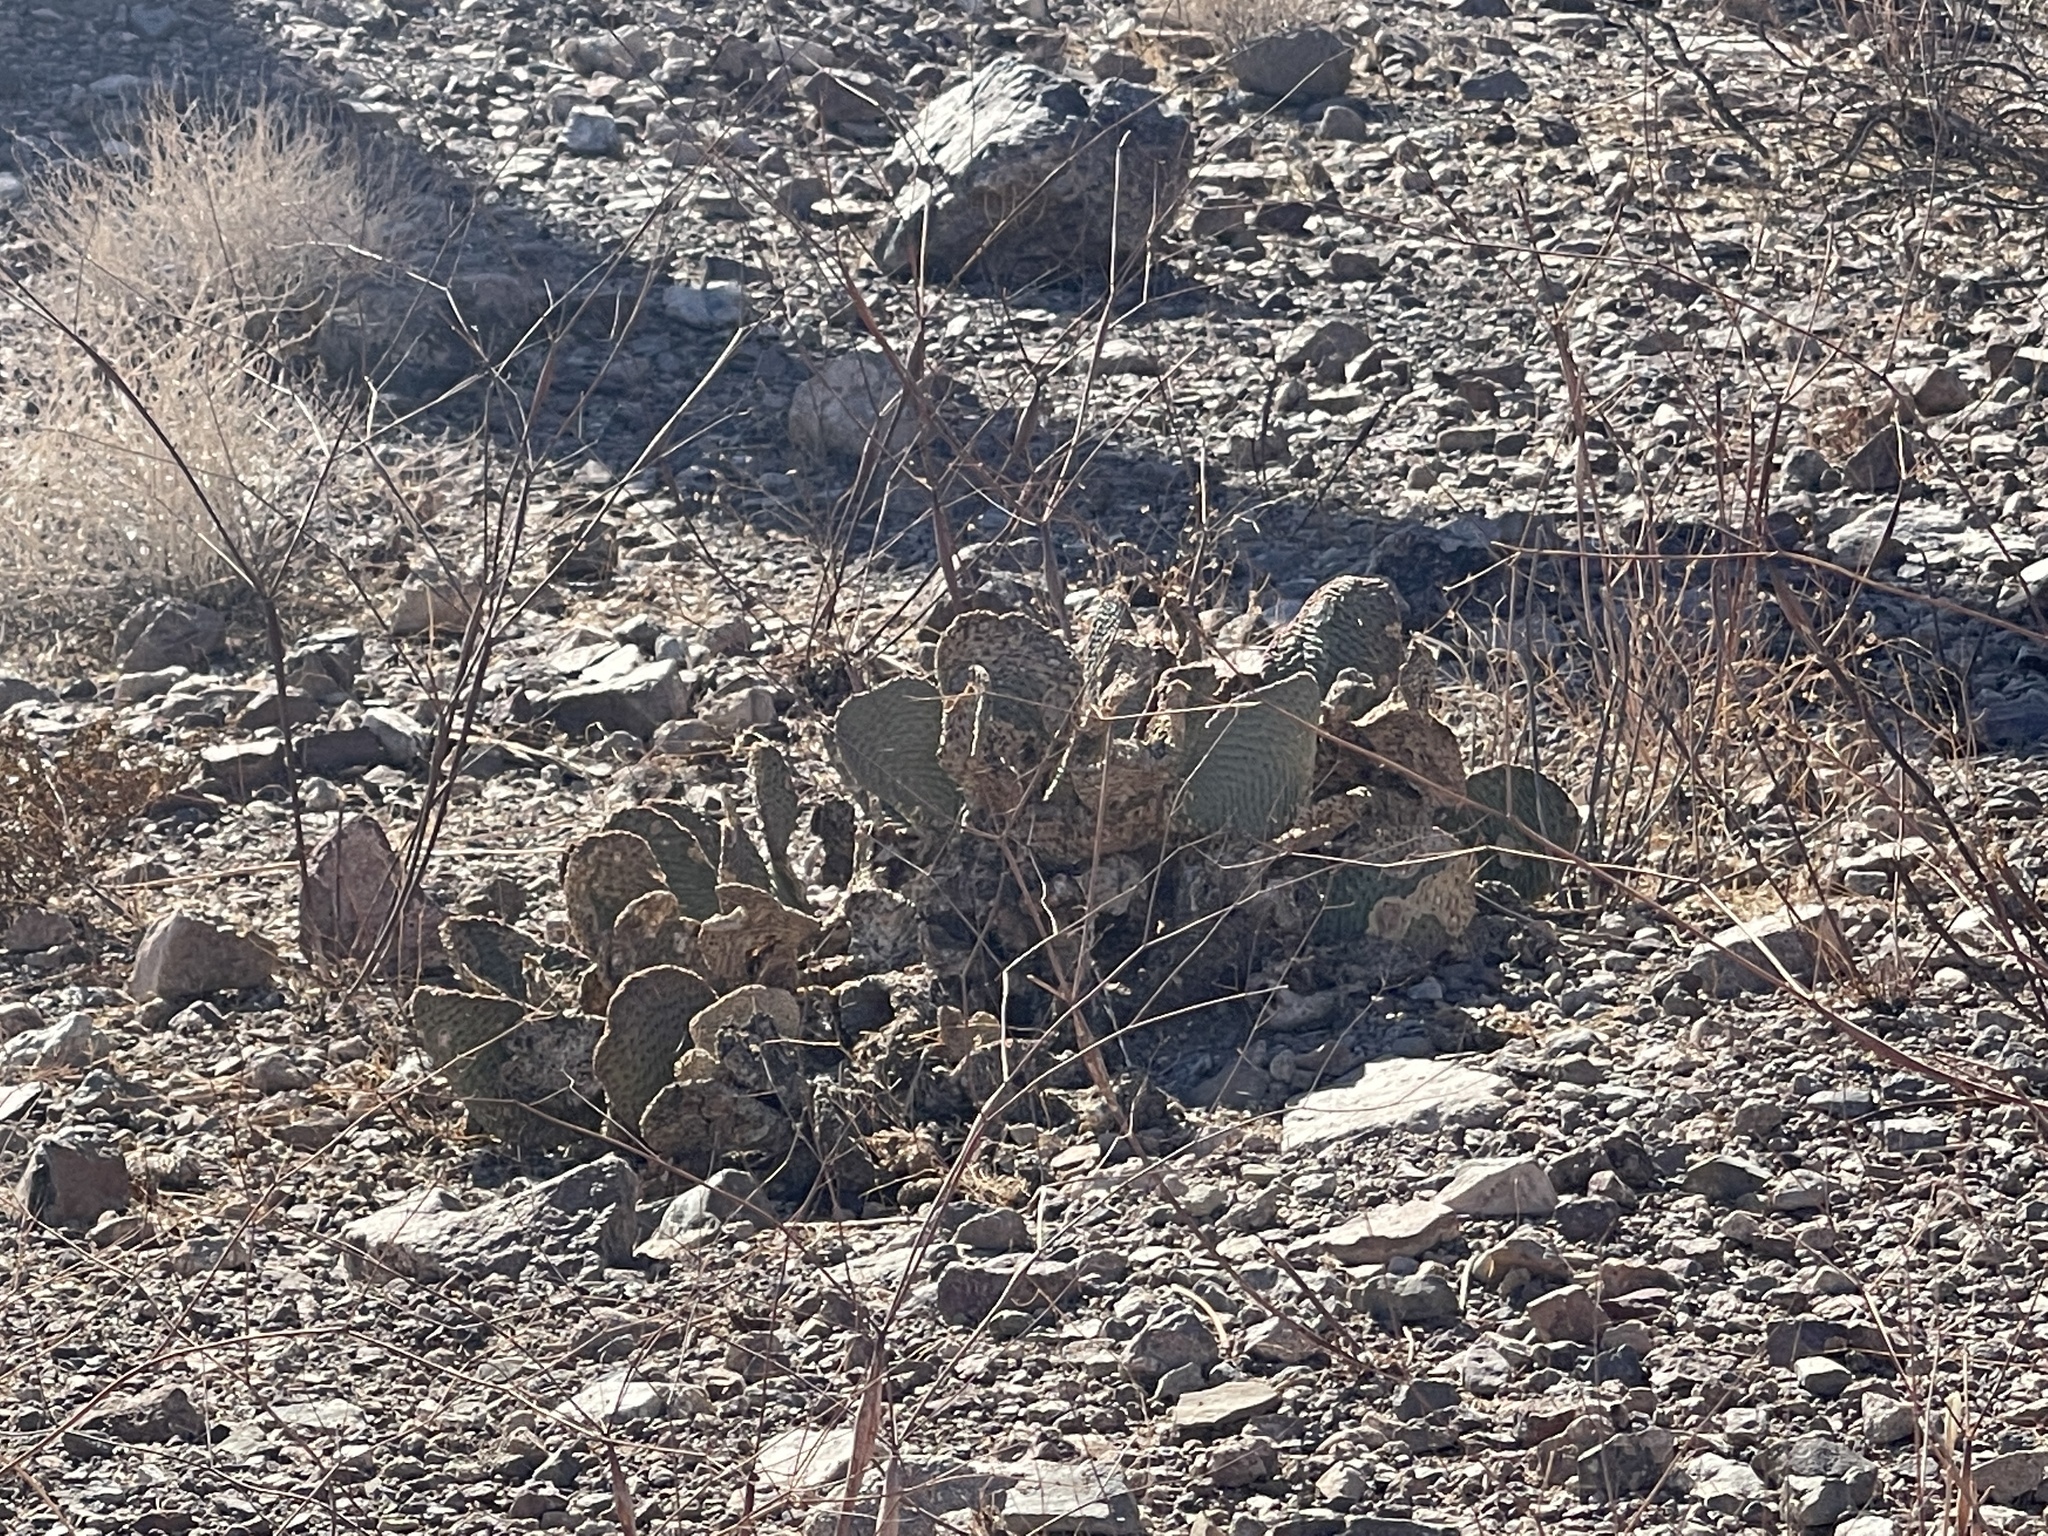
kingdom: Plantae
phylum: Tracheophyta
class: Magnoliopsida
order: Caryophyllales
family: Cactaceae
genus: Opuntia
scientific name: Opuntia basilaris
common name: Beavertail prickly-pear
